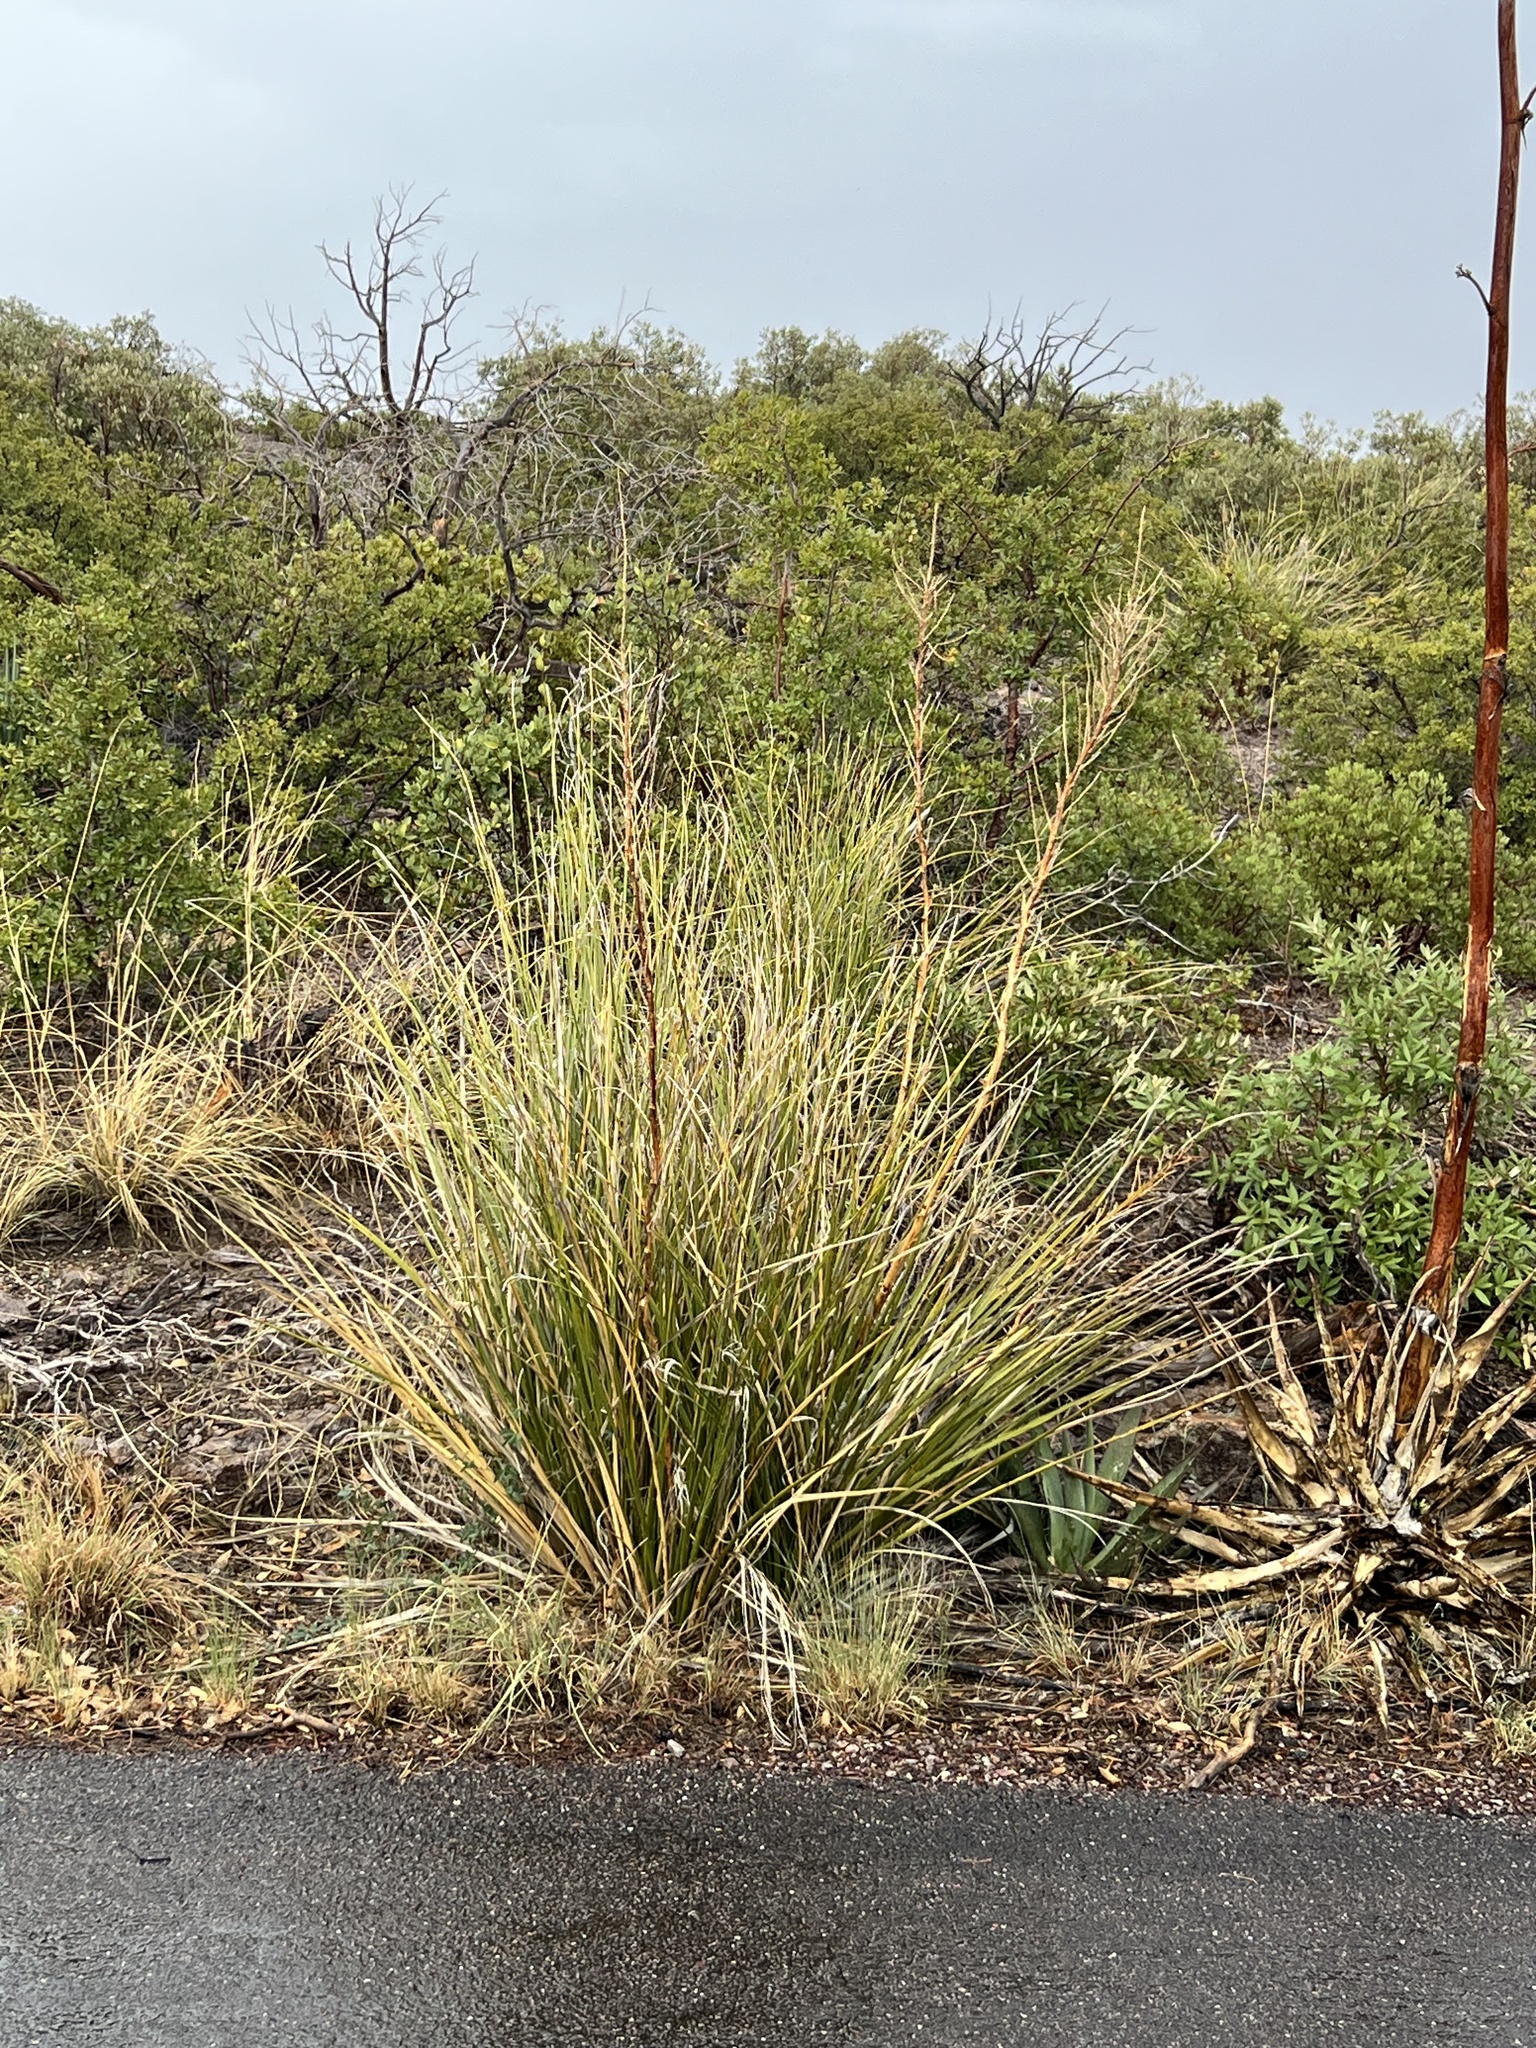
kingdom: Plantae
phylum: Tracheophyta
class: Liliopsida
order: Asparagales
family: Asparagaceae
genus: Nolina
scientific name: Nolina microcarpa
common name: Bear-grass
